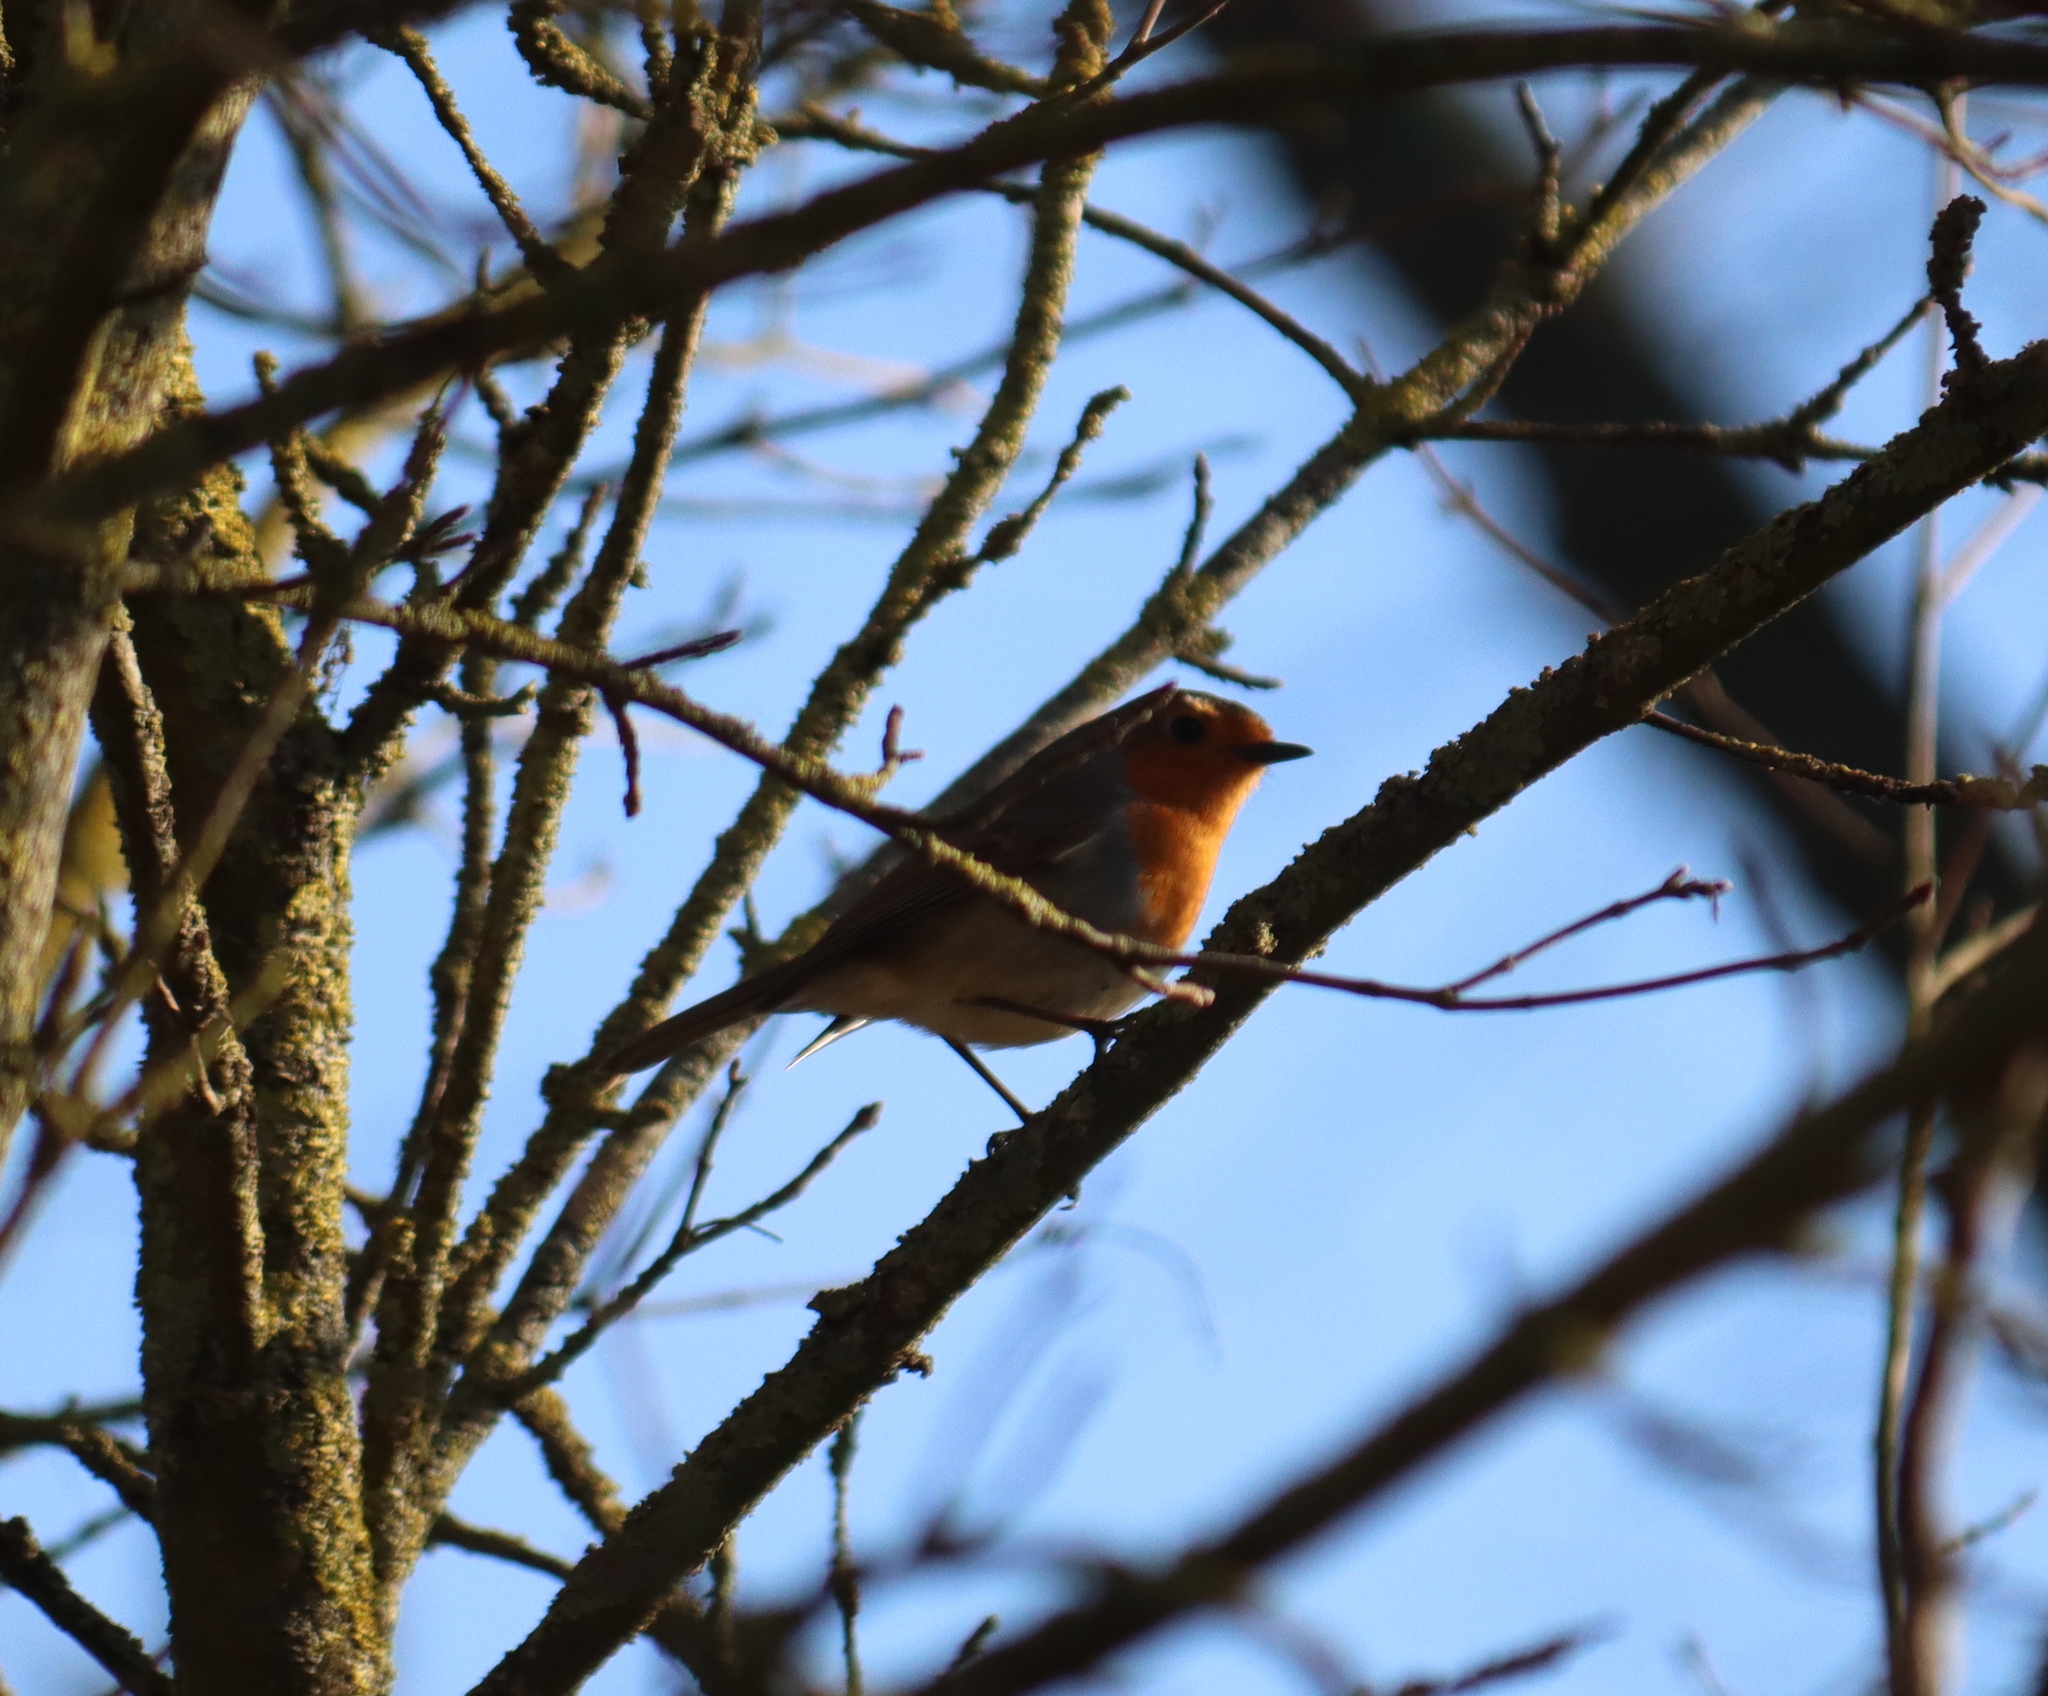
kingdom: Animalia
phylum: Chordata
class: Aves
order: Passeriformes
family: Muscicapidae
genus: Erithacus
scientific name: Erithacus rubecula
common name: European robin
